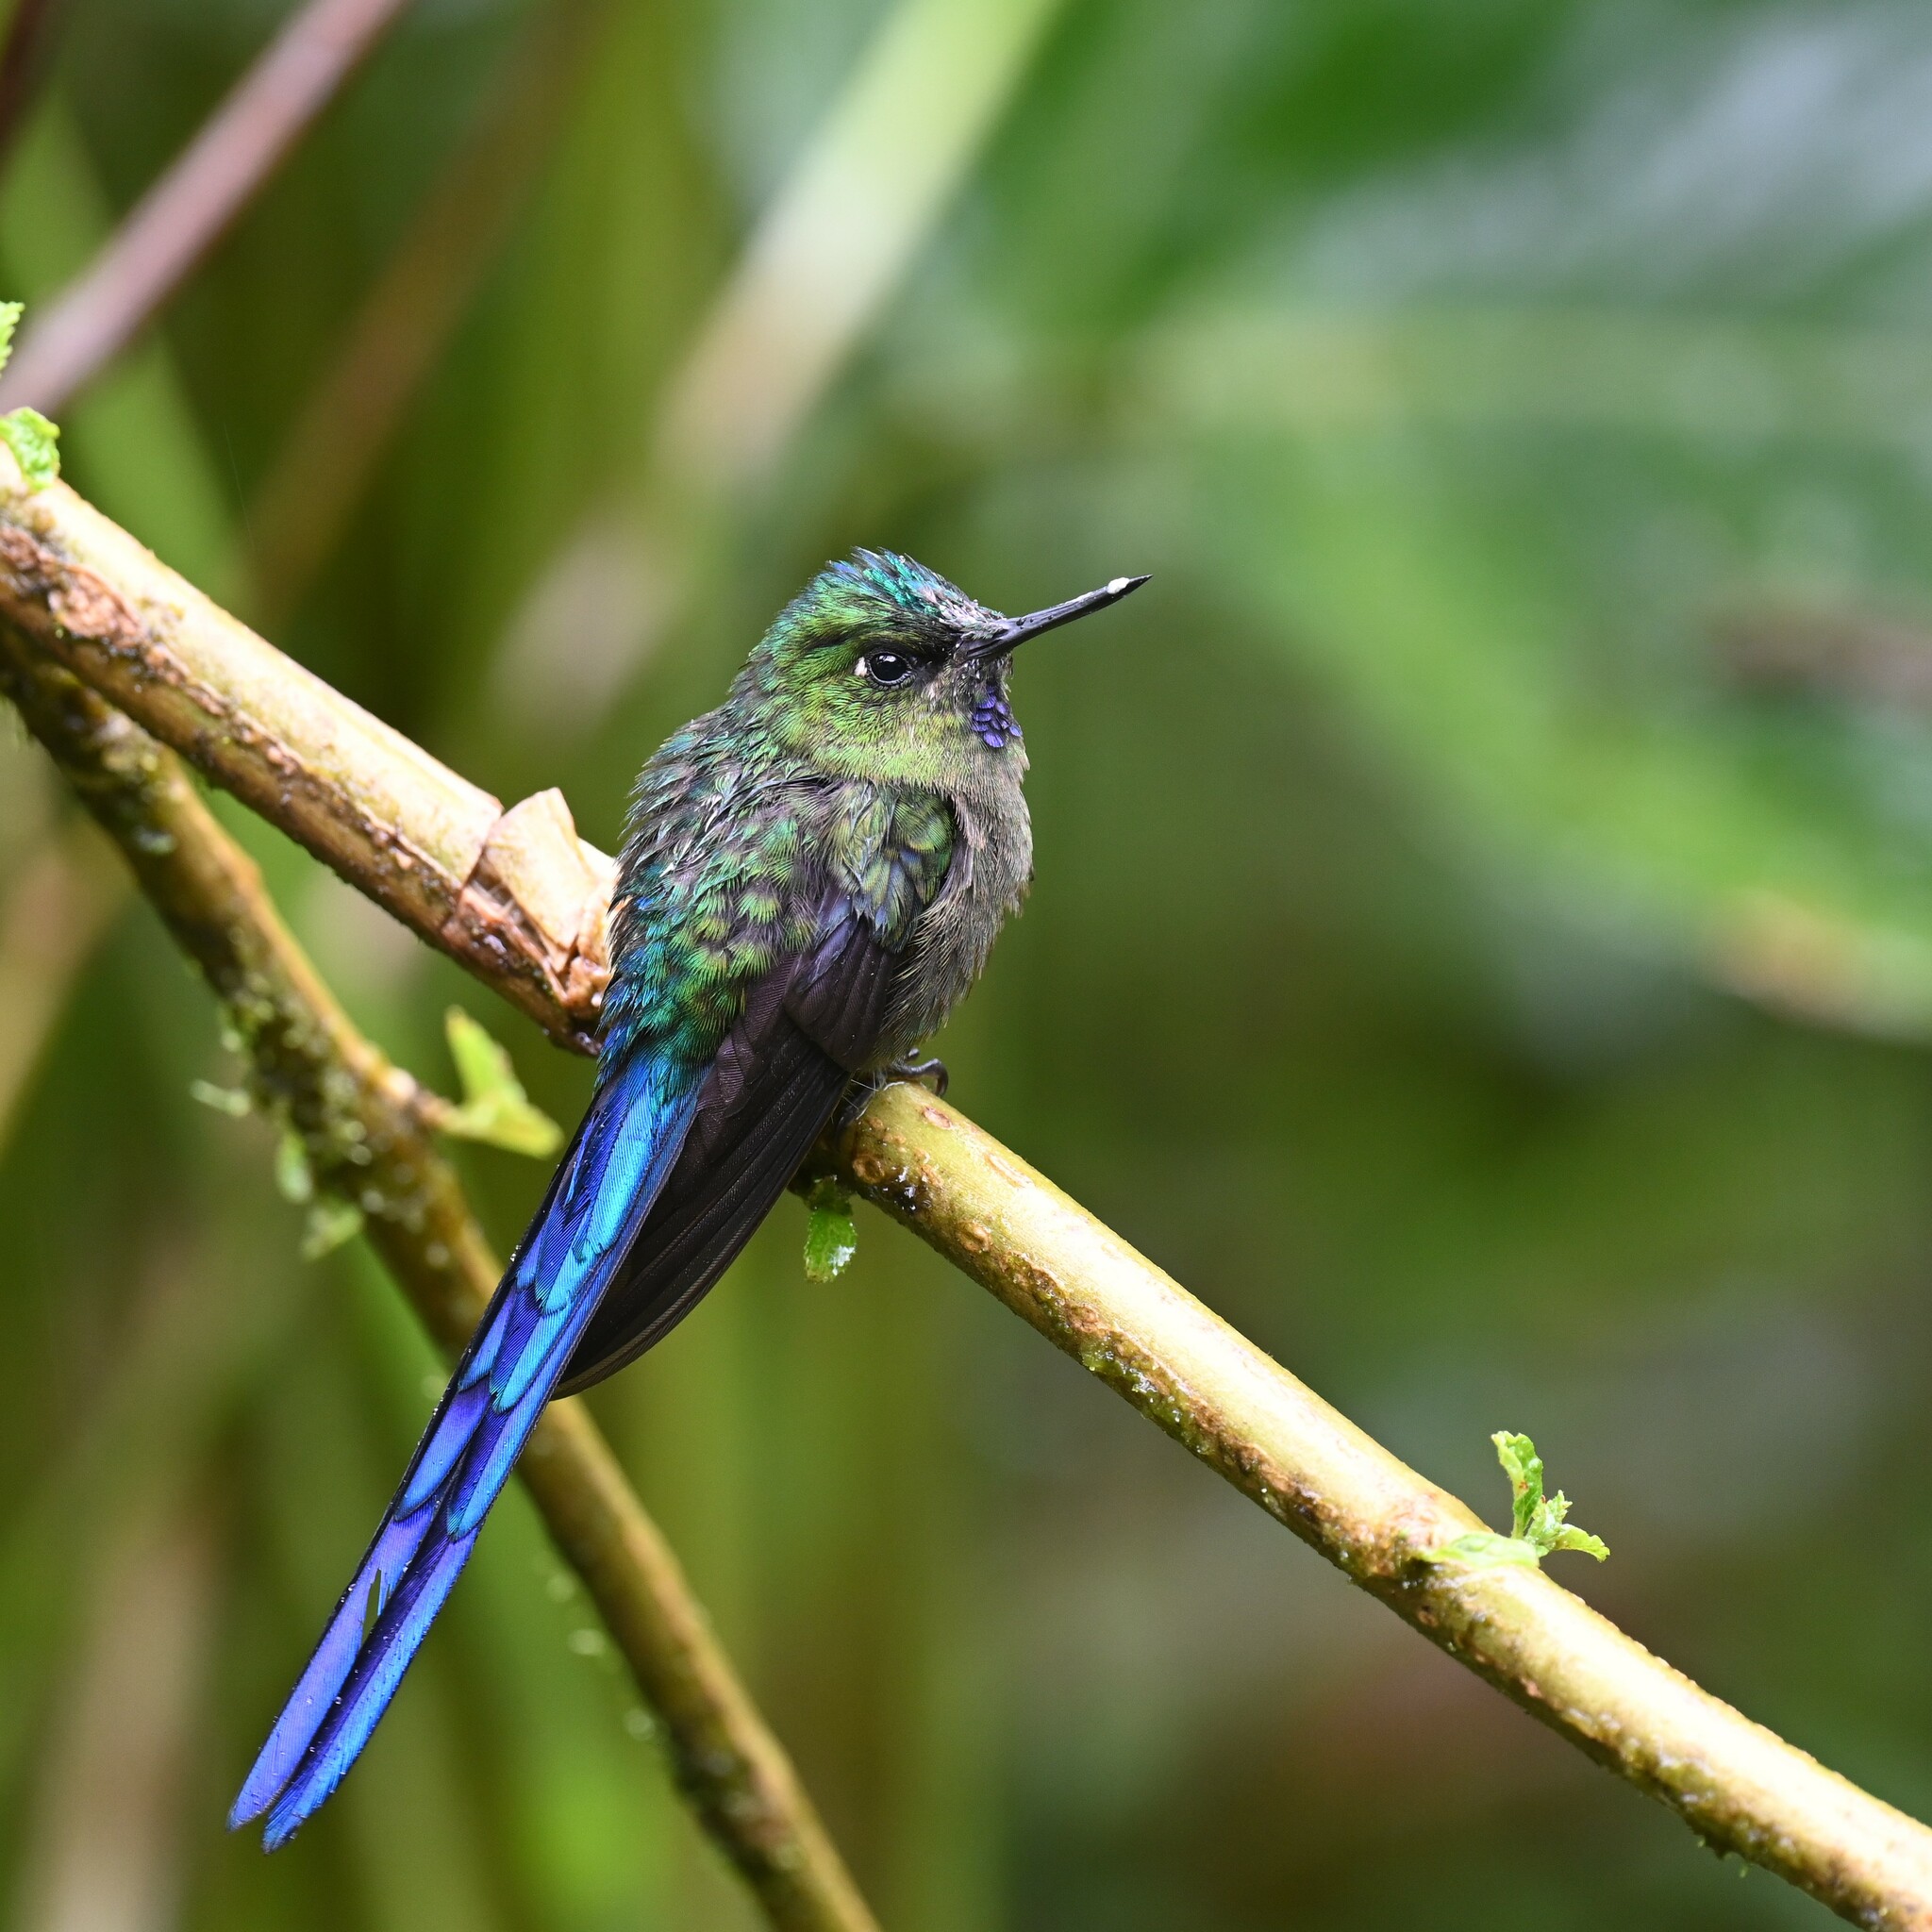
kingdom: Animalia
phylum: Chordata
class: Aves
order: Apodiformes
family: Trochilidae
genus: Aglaiocercus
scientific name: Aglaiocercus coelestis
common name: Violet-tailed sylph
